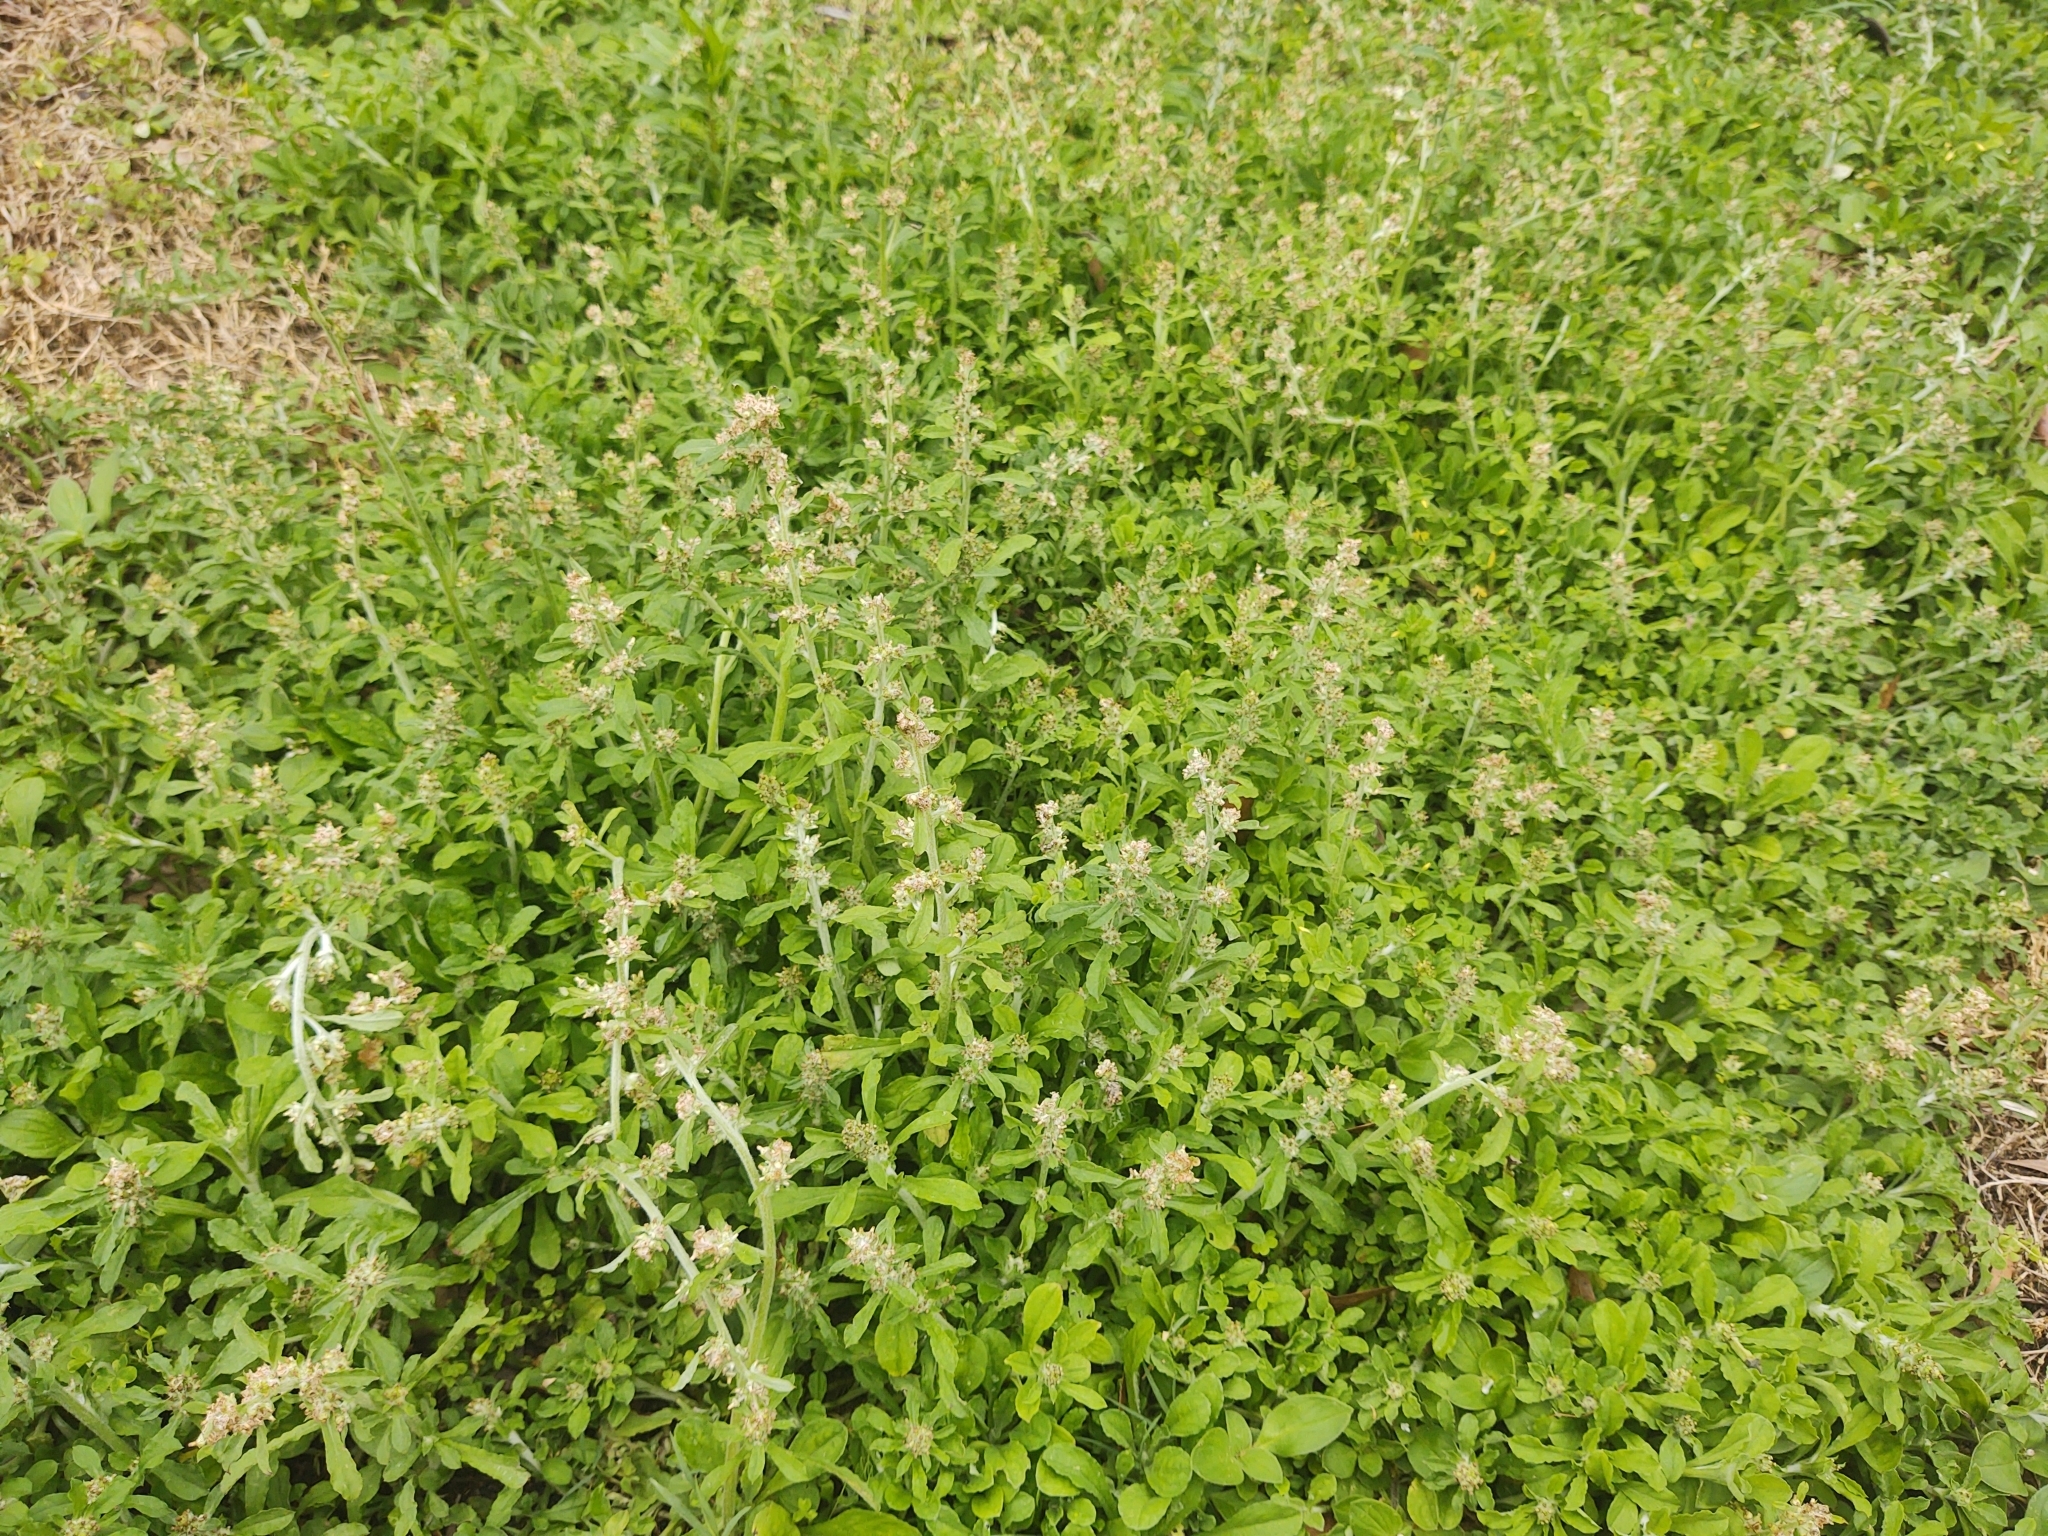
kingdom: Plantae
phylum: Tracheophyta
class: Magnoliopsida
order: Asterales
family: Asteraceae
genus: Gamochaeta
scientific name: Gamochaeta pensylvanica
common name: Pennsylvania everlasting
